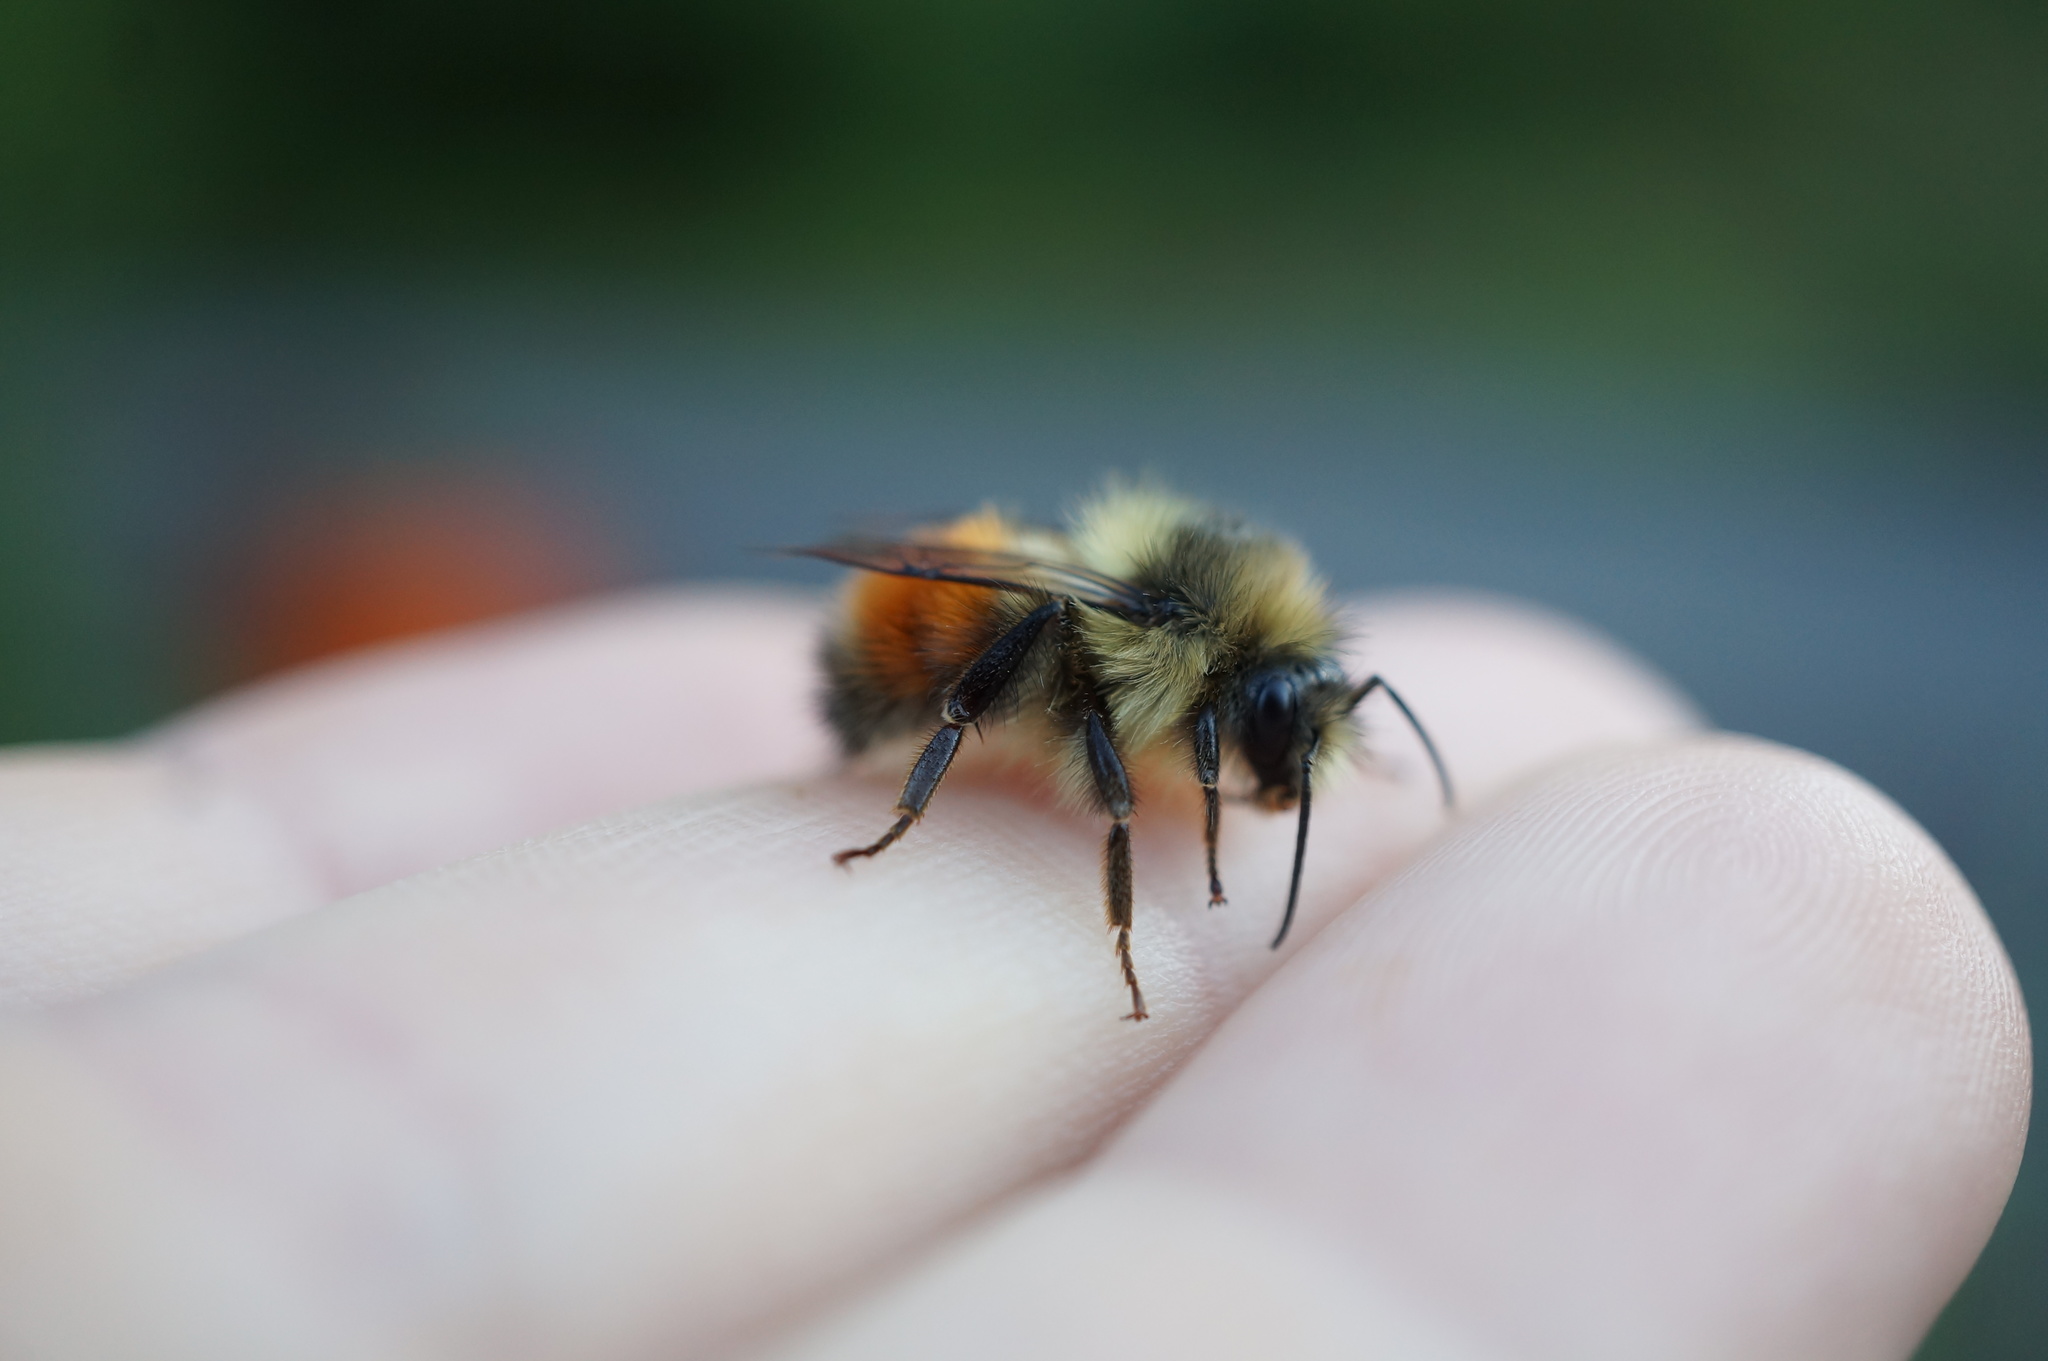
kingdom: Animalia
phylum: Arthropoda
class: Insecta
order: Hymenoptera
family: Apidae
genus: Bombus
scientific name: Bombus melanopygus
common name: Black tail bumble bee
